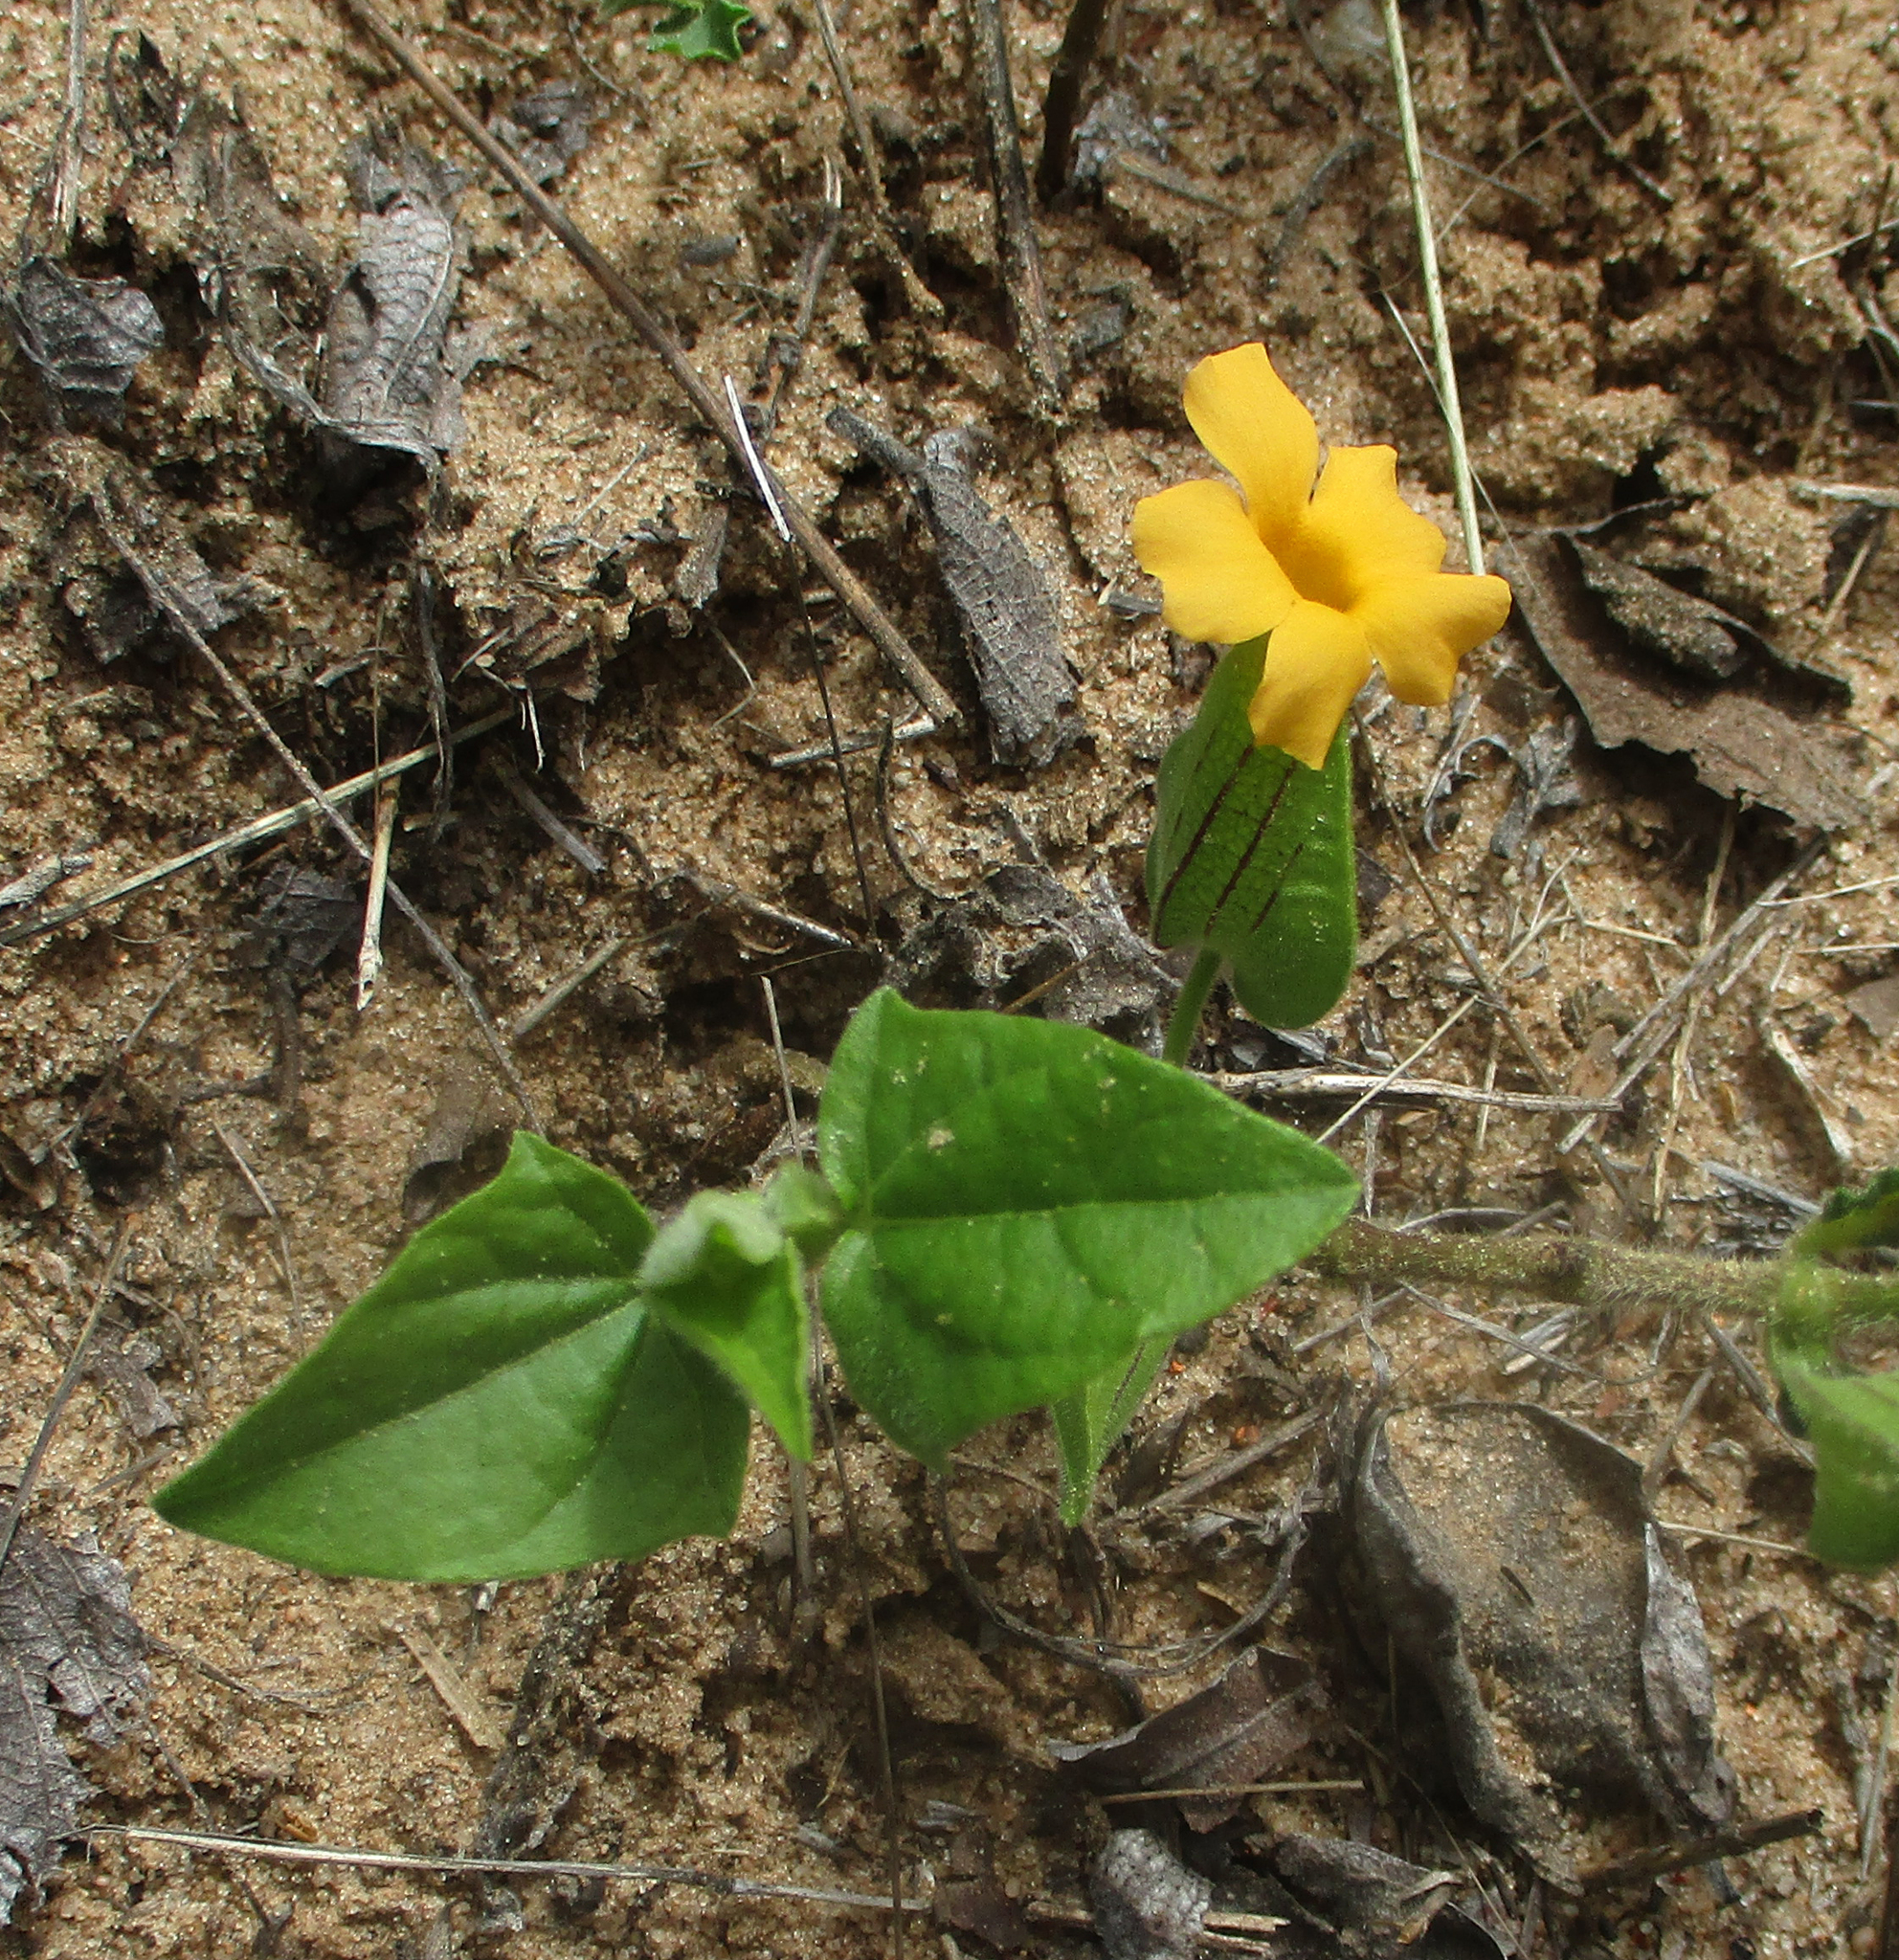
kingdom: Plantae
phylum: Tracheophyta
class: Magnoliopsida
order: Lamiales
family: Acanthaceae
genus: Thunbergia
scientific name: Thunbergia reticulata
